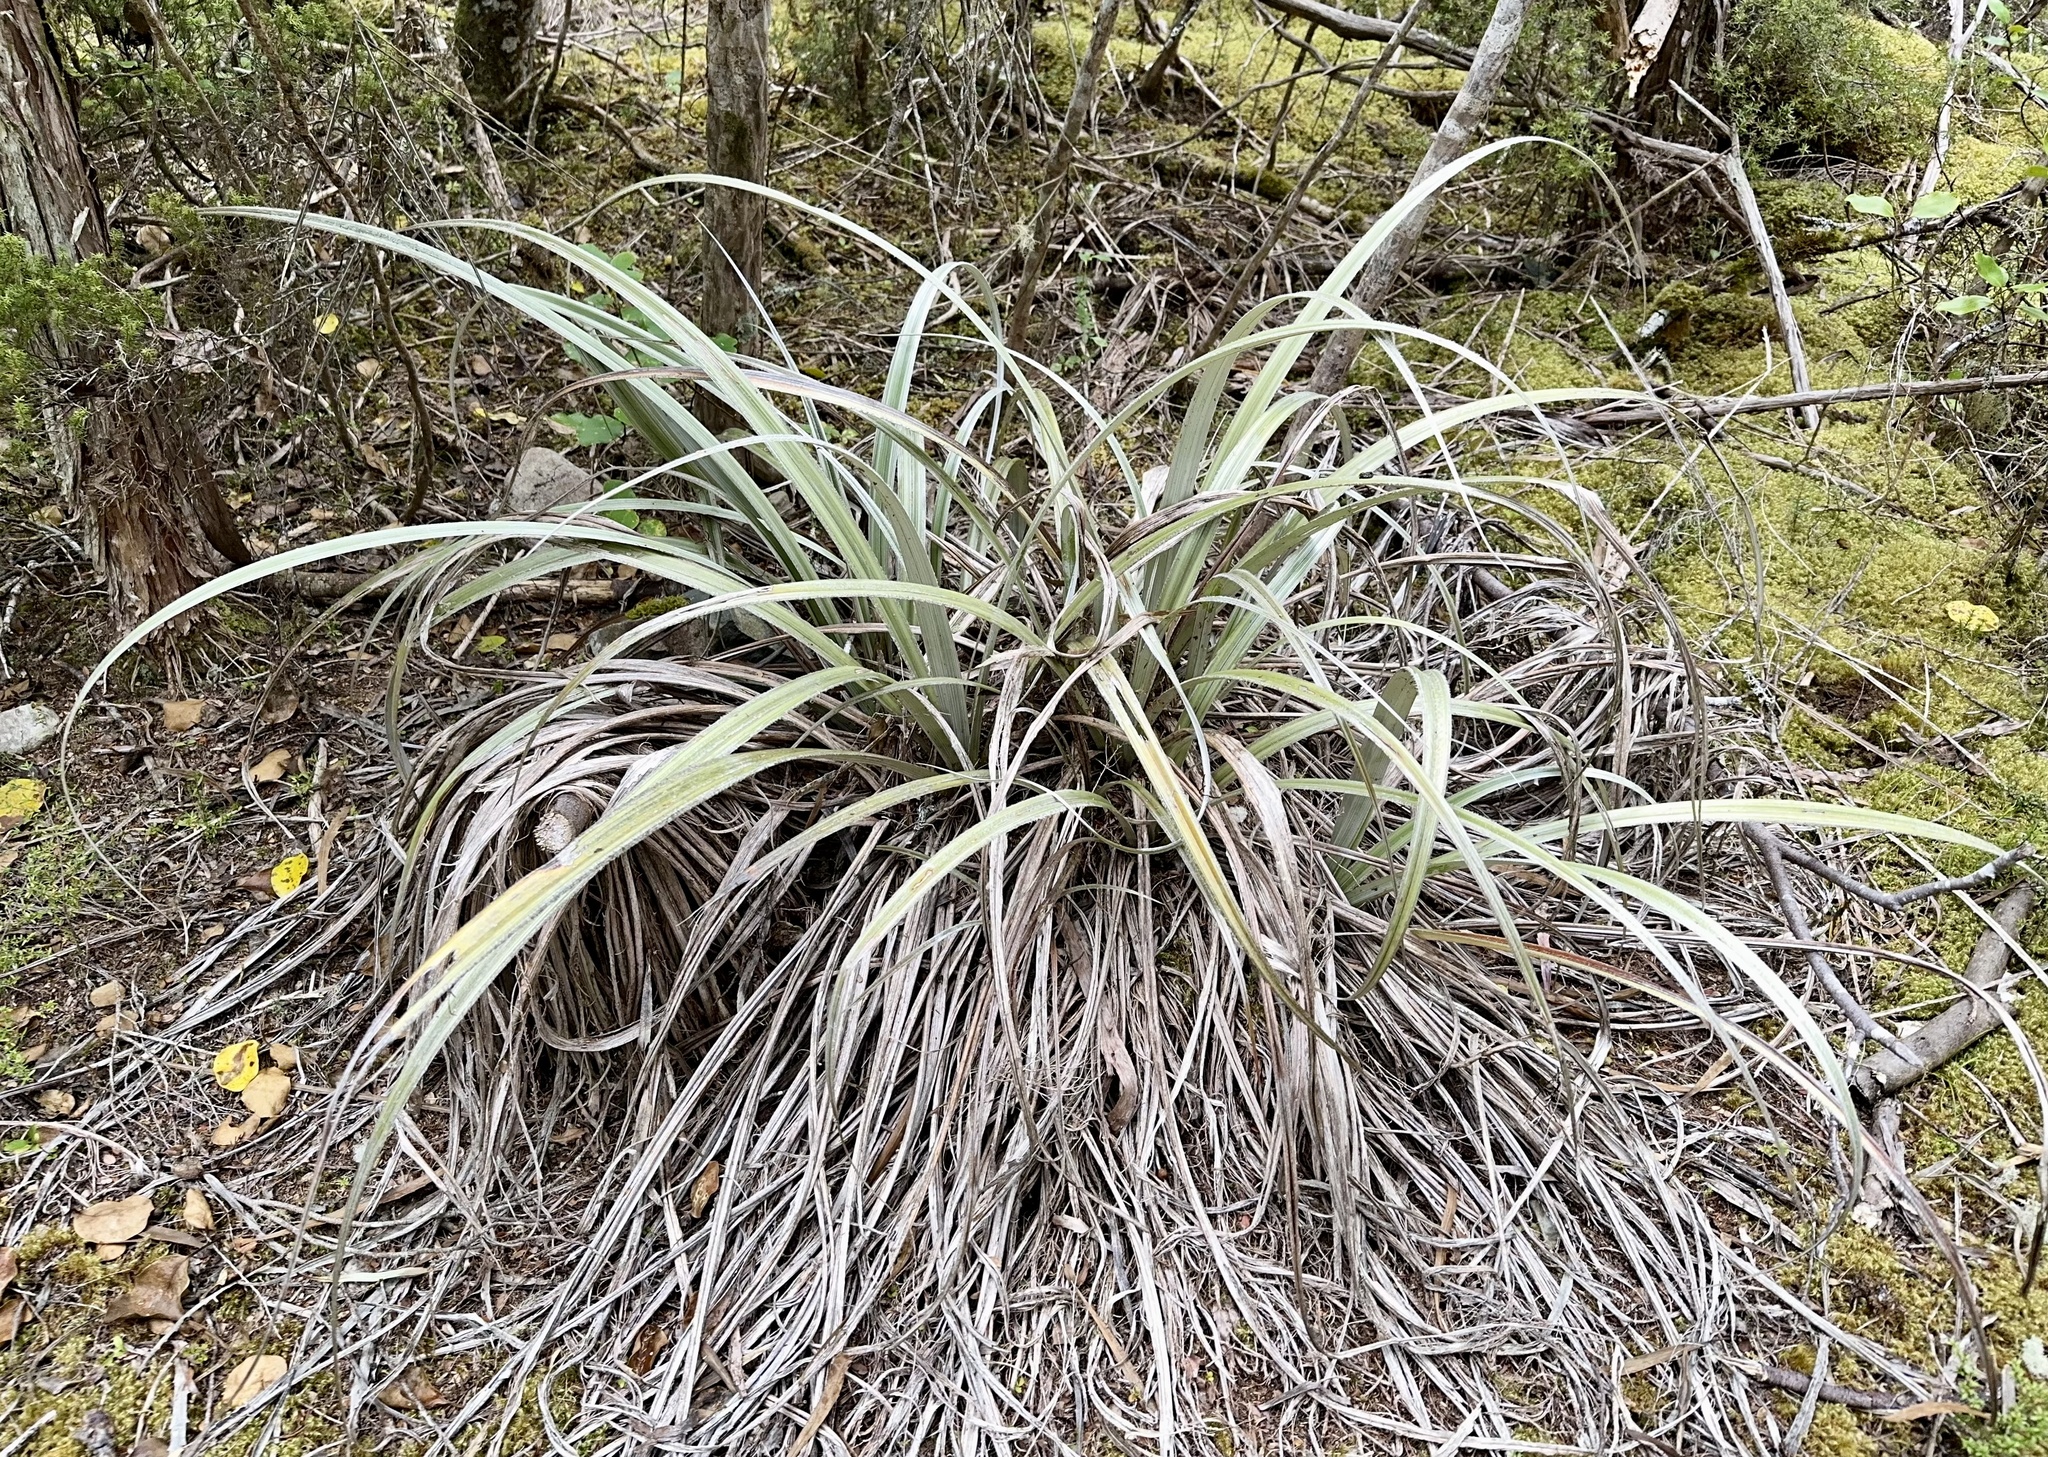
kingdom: Plantae
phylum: Tracheophyta
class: Liliopsida
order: Asparagales
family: Asteliaceae
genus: Astelia
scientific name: Astelia nervosa
